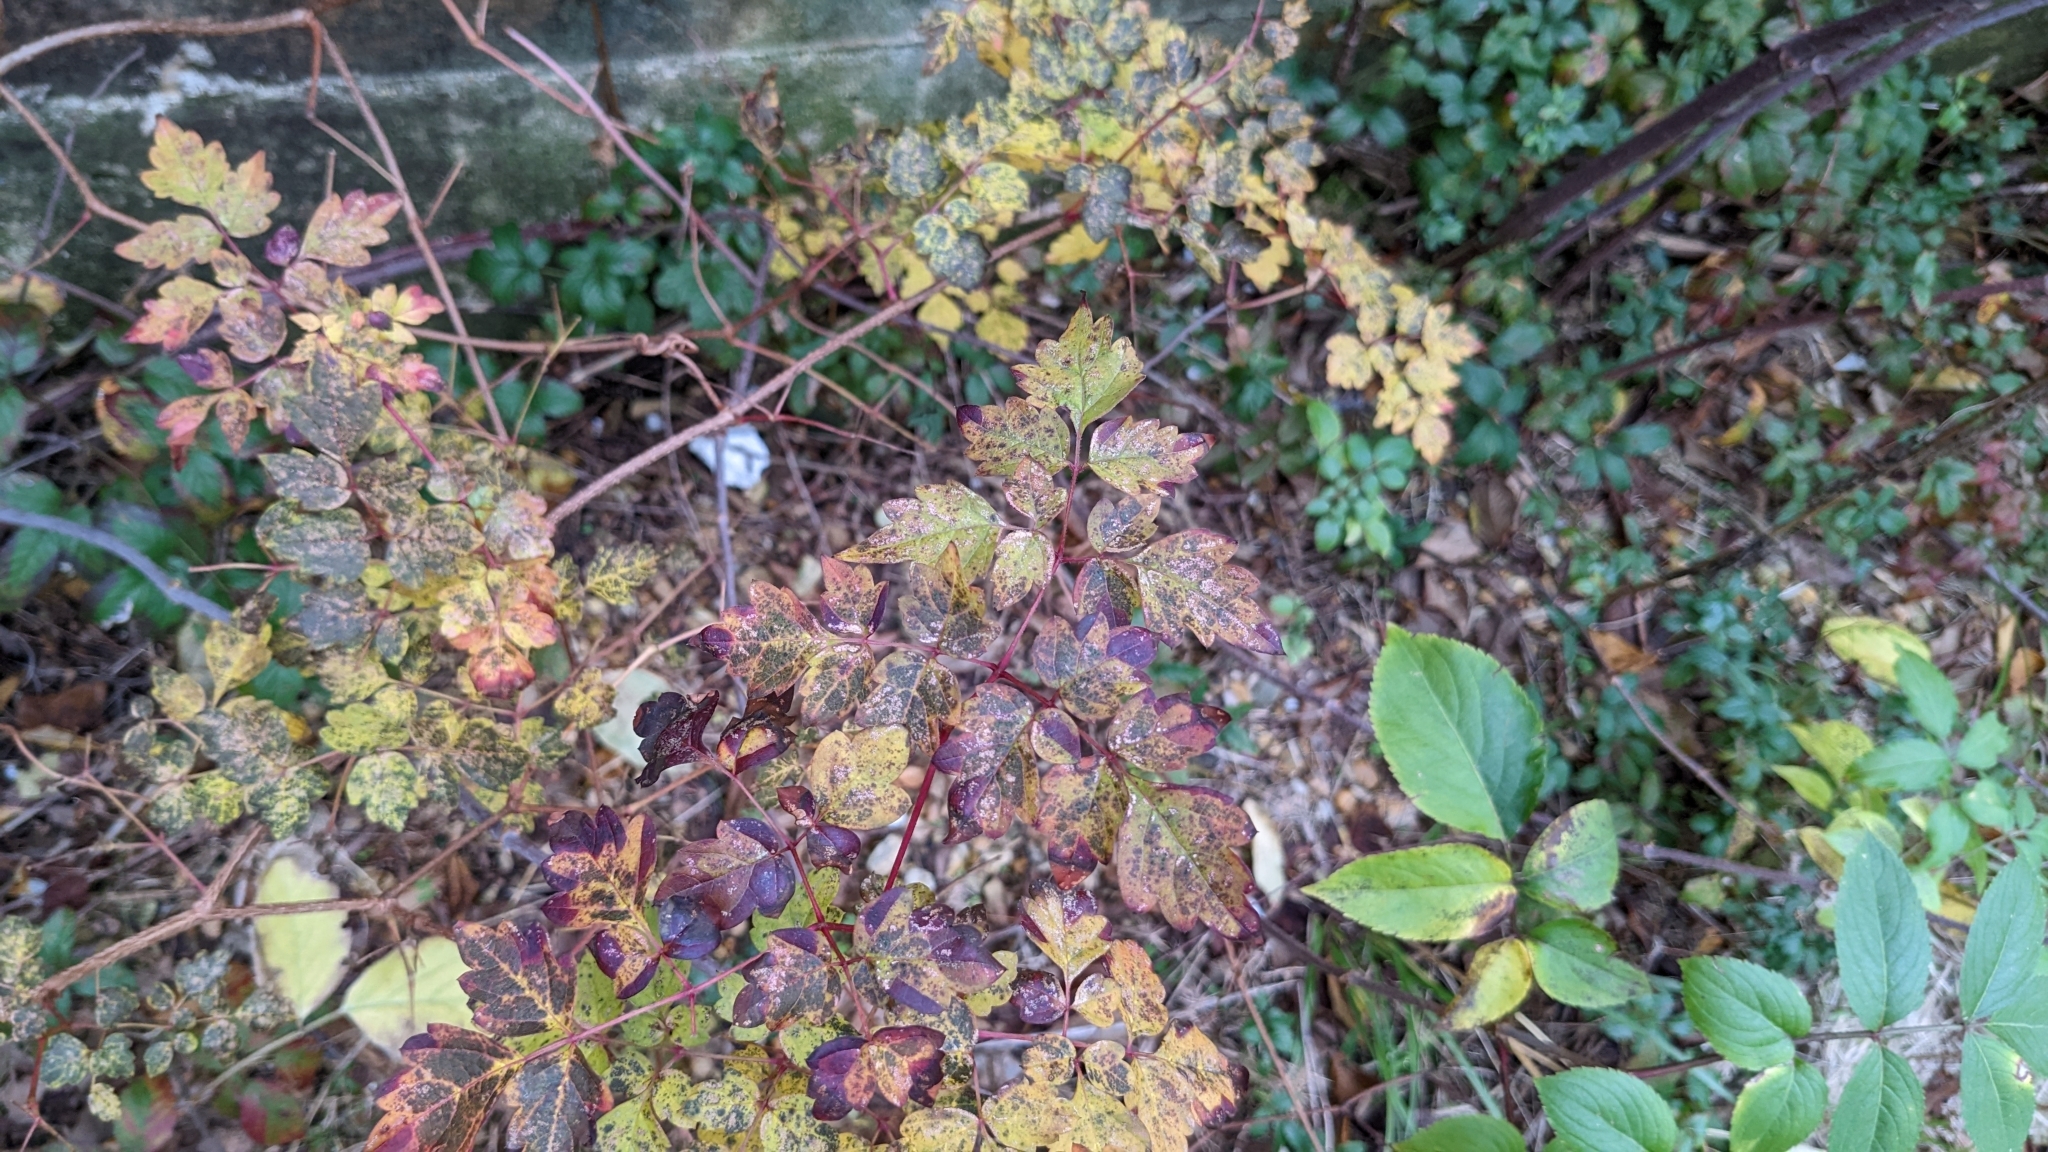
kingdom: Plantae
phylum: Tracheophyta
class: Magnoliopsida
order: Vitales
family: Vitaceae
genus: Nekemias
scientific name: Nekemias arborea
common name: Peppervine
